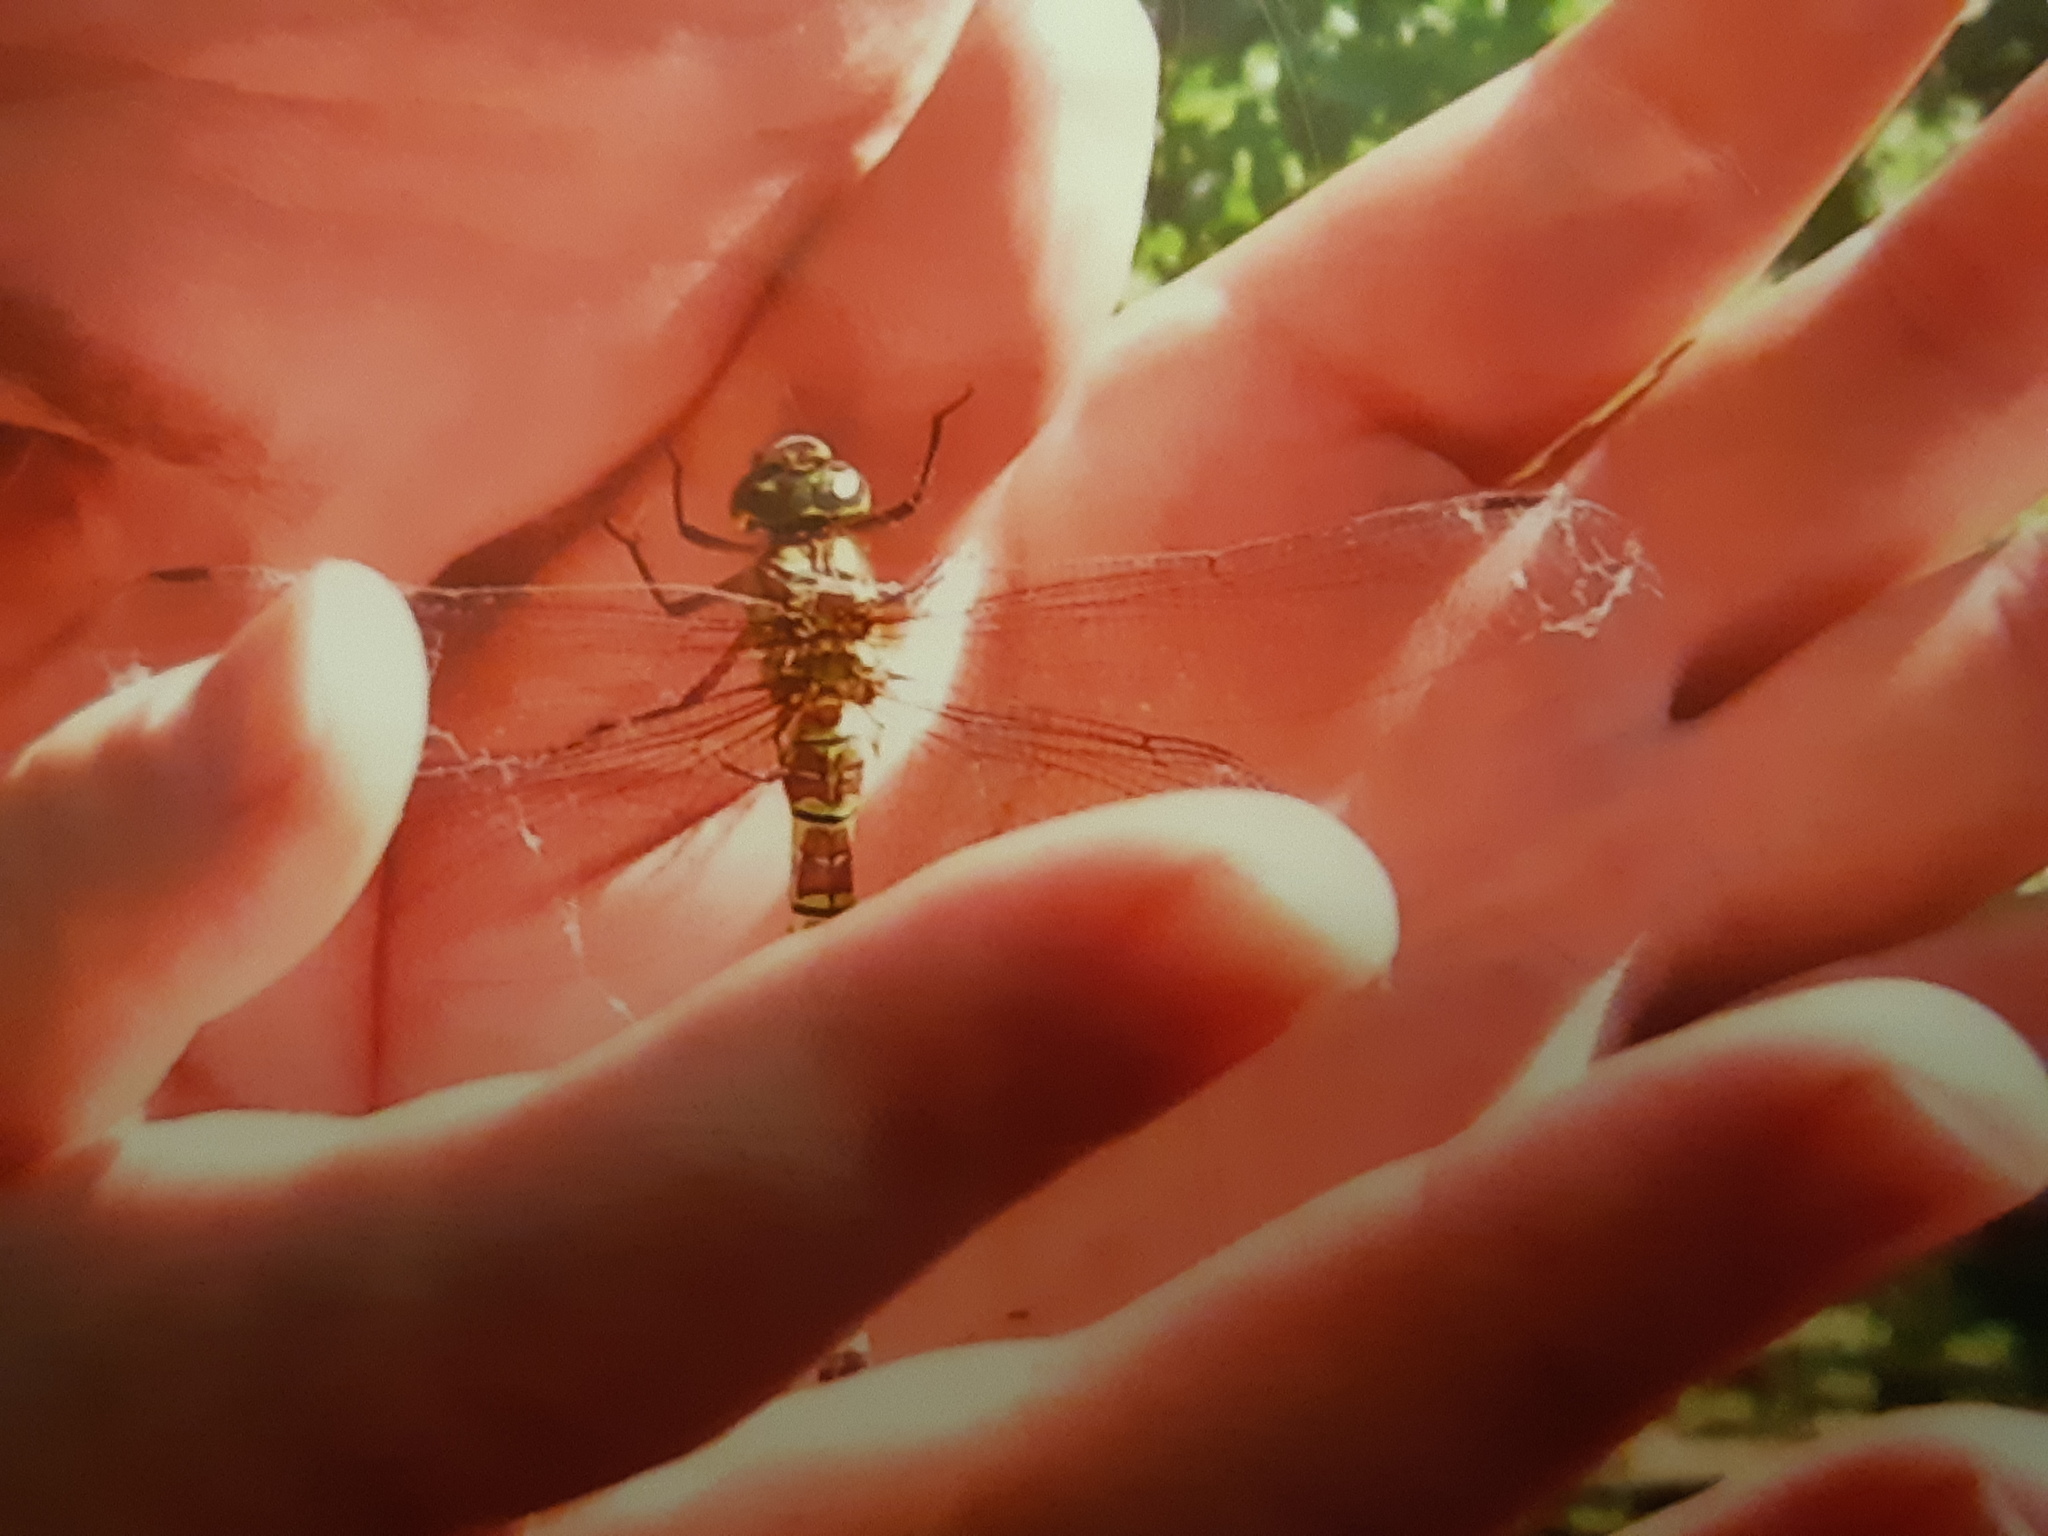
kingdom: Animalia
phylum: Arthropoda
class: Insecta
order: Odonata
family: Aeshnidae
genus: Aeshna
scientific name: Aeshna cyanea
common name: Southern hawker
